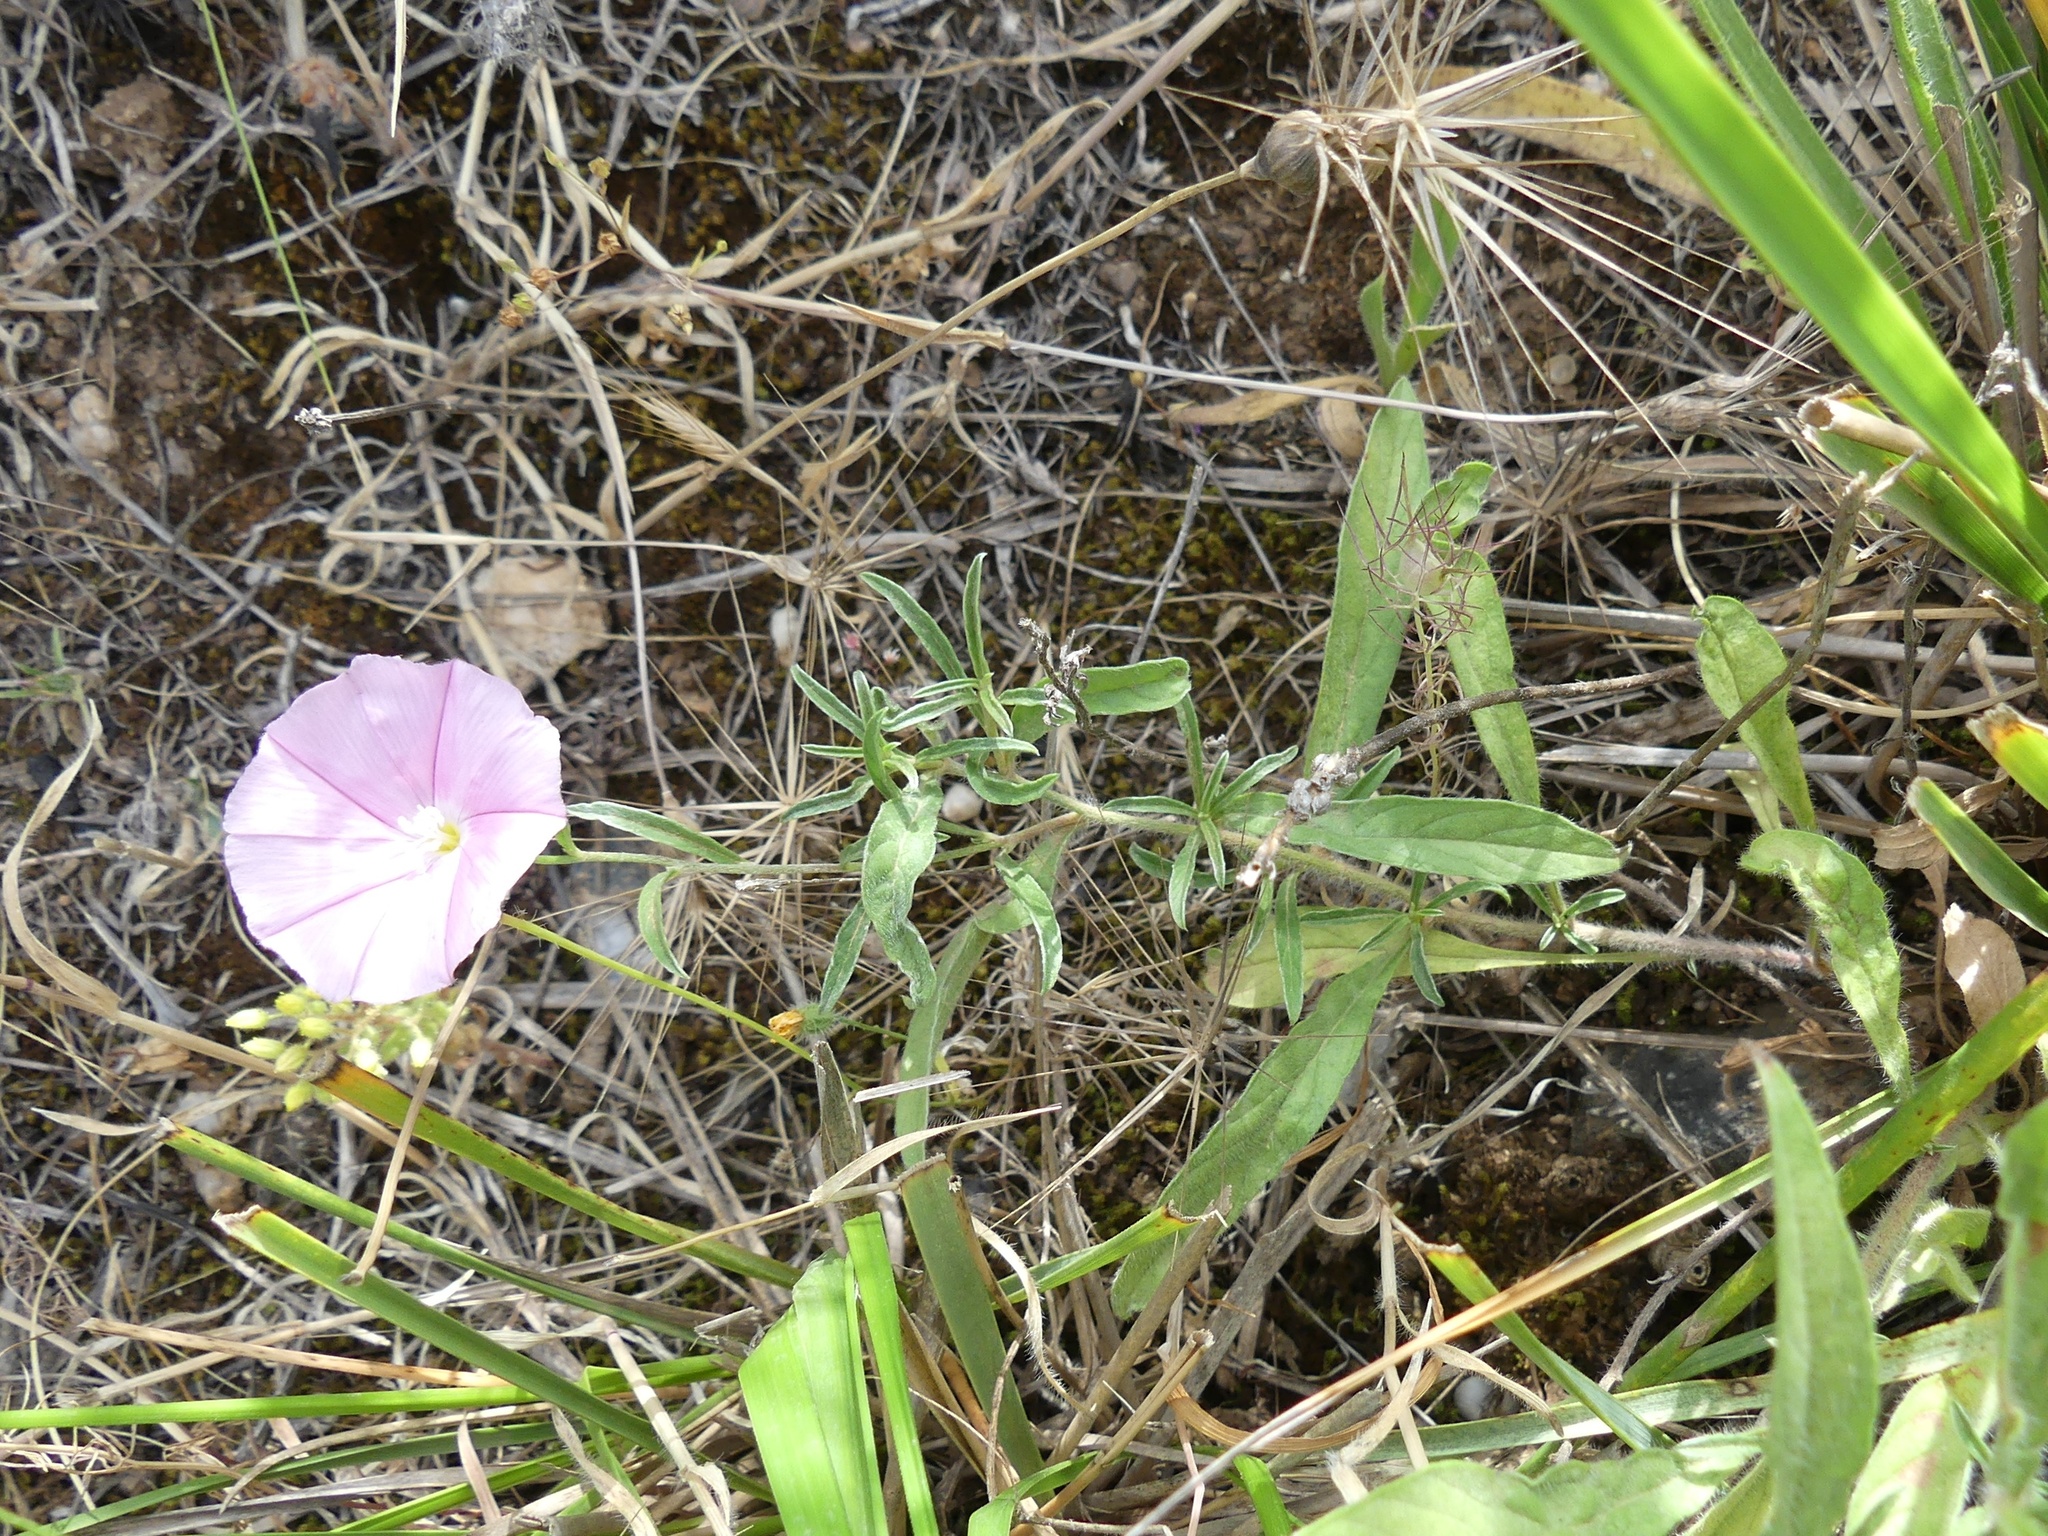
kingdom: Plantae
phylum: Tracheophyta
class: Magnoliopsida
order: Solanales
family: Convolvulaceae
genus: Convolvulus
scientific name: Convolvulus cantabrica
